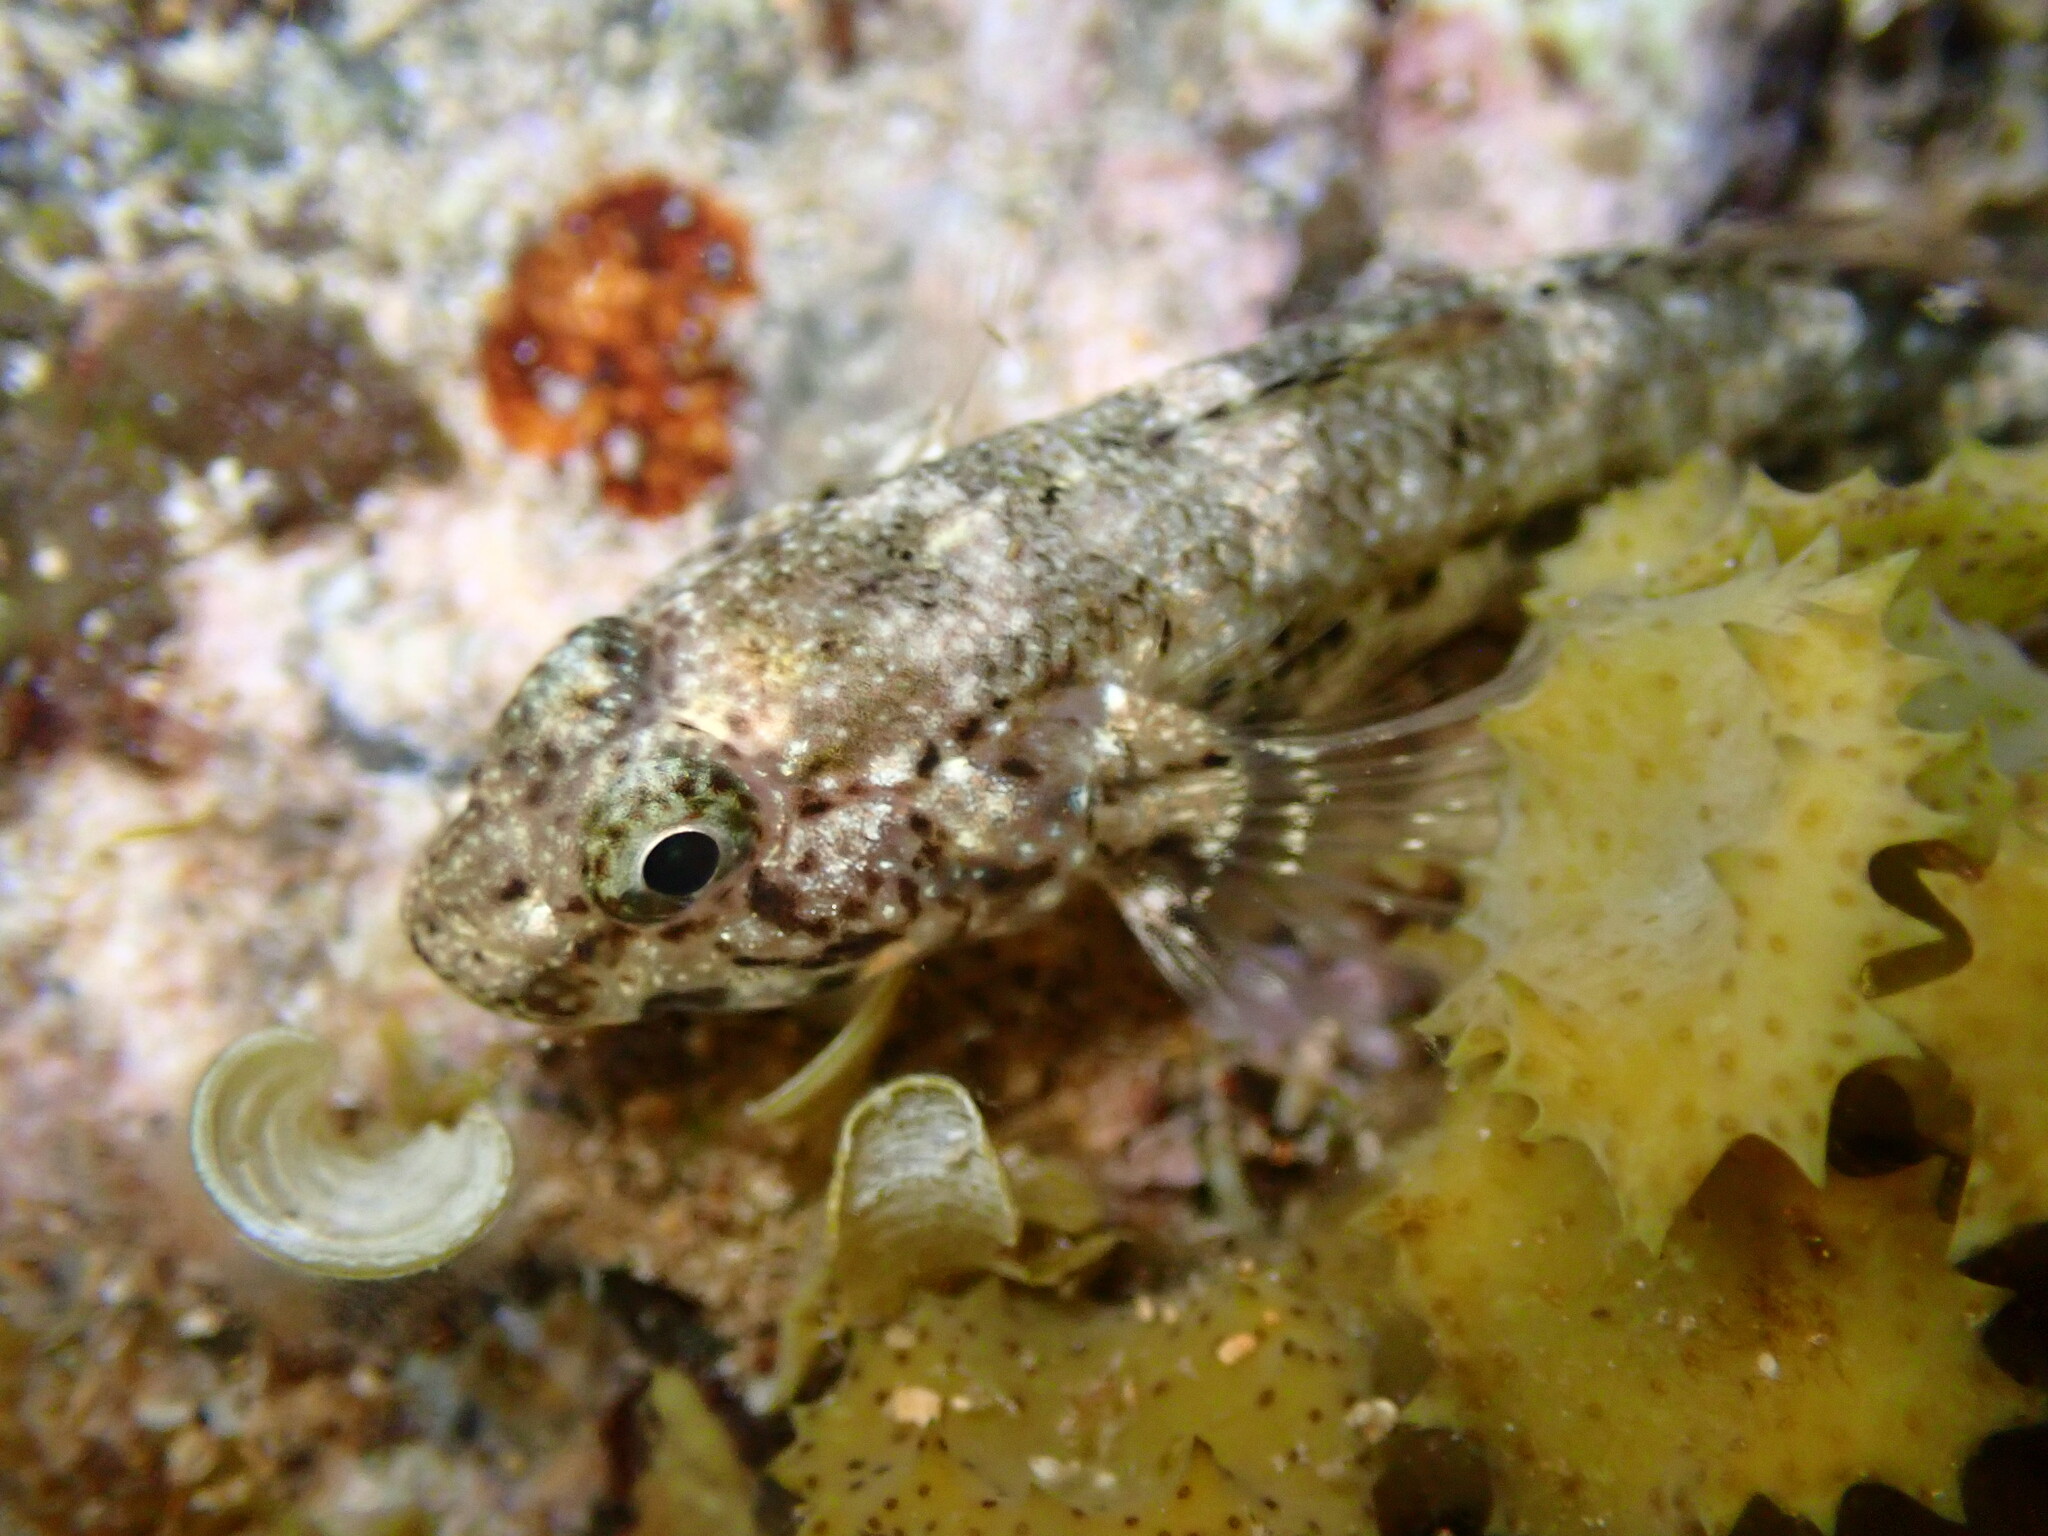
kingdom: Animalia
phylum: Chordata
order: Perciformes
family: Gobiidae
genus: Bathygobius
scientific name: Bathygobius coalitus
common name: Whitespotted goby
